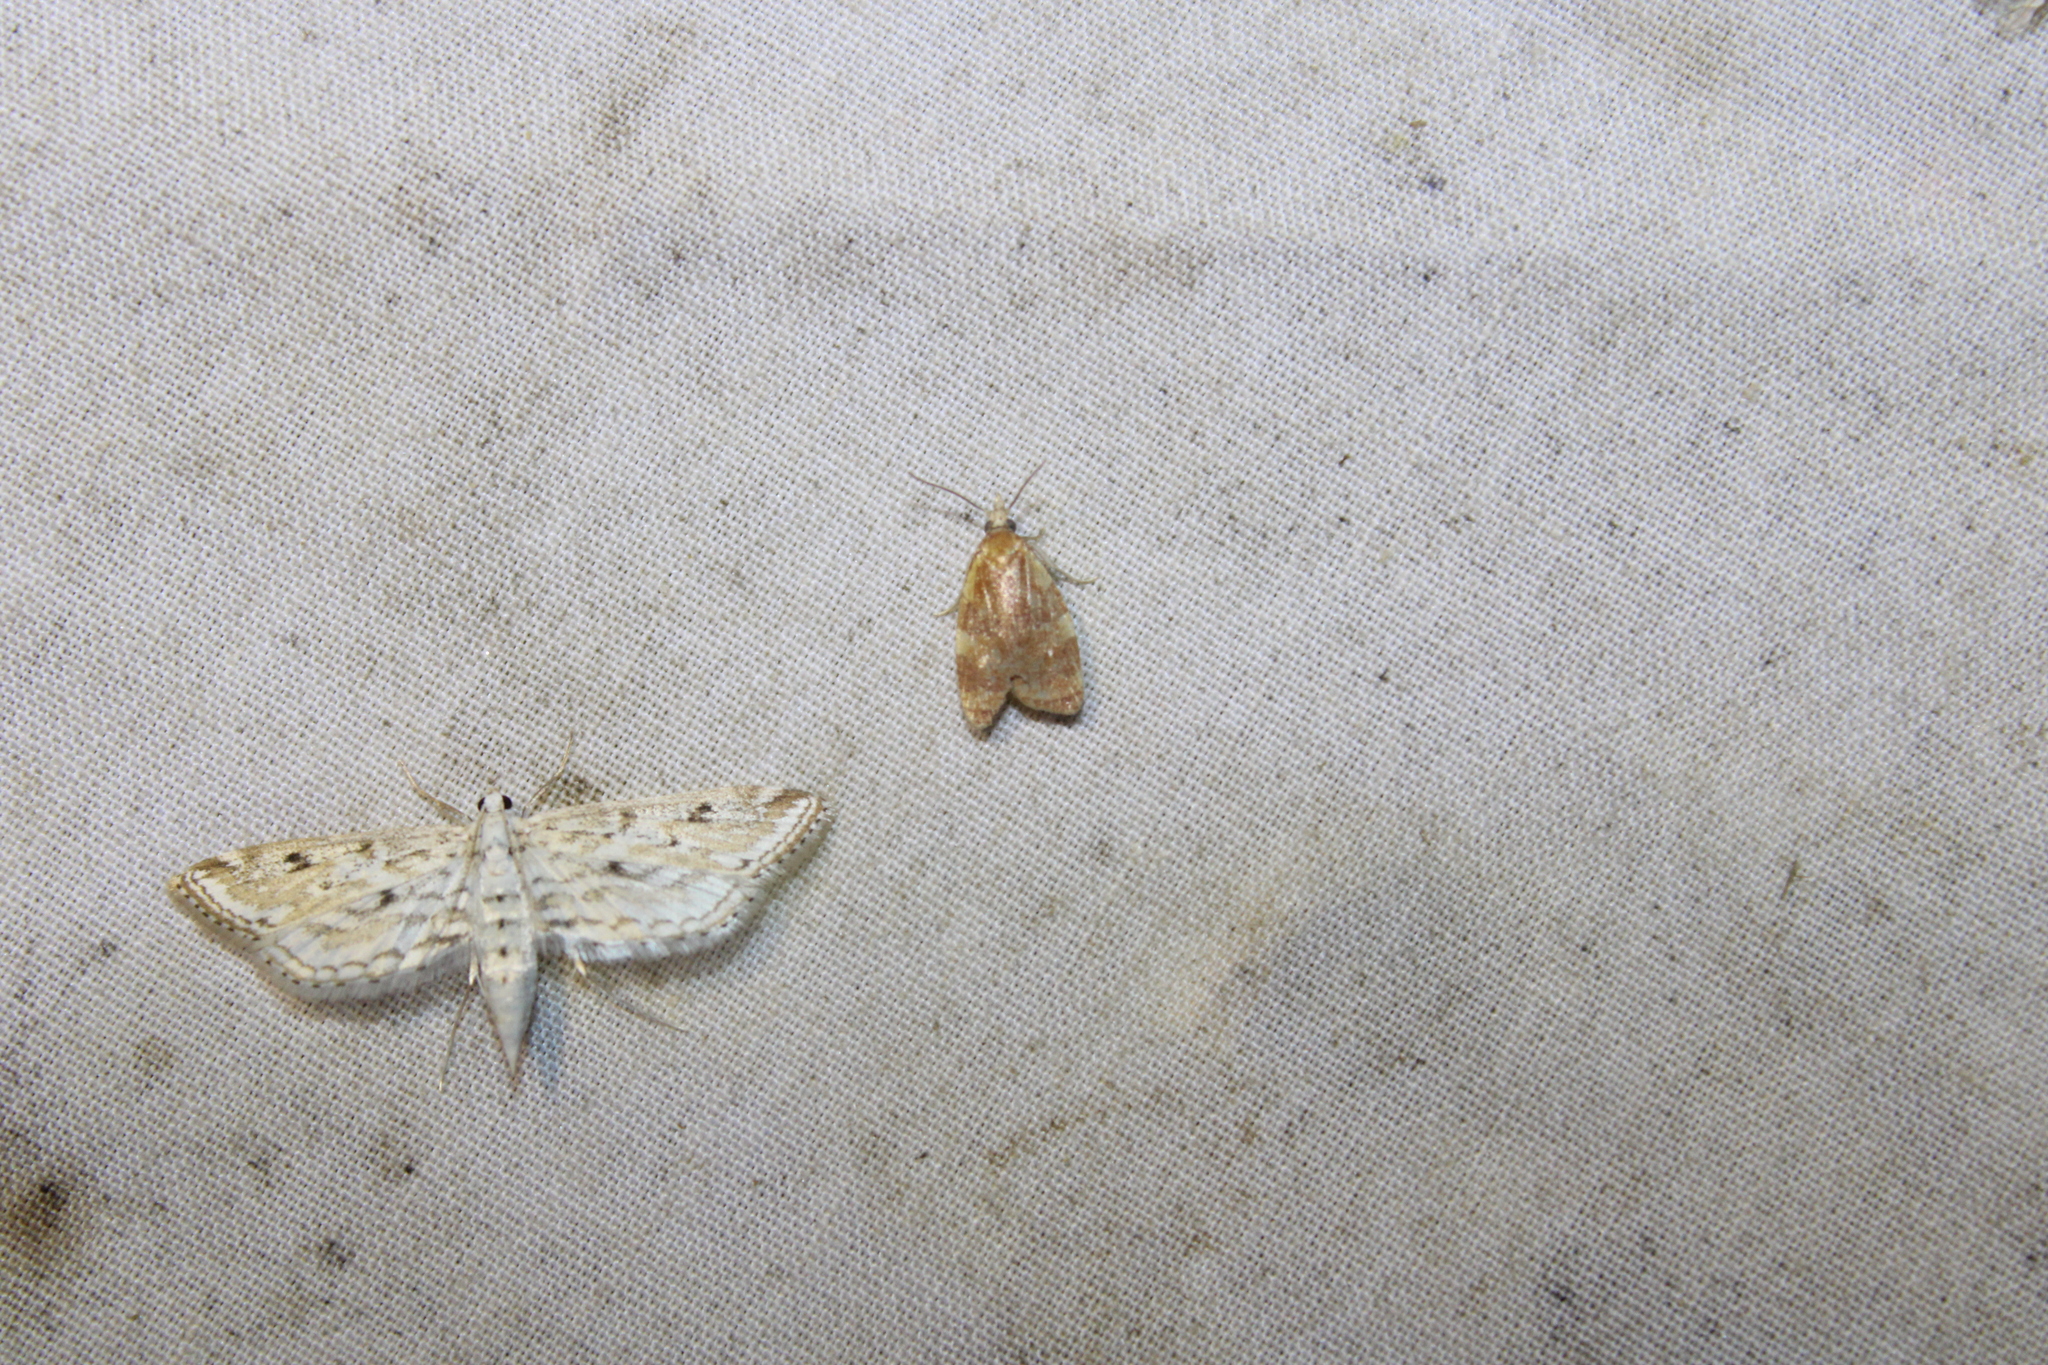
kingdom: Animalia
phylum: Arthropoda
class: Insecta
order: Lepidoptera
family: Crambidae
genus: Parapoynx
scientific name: Parapoynx allionealis
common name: Bladderwort casemaker
